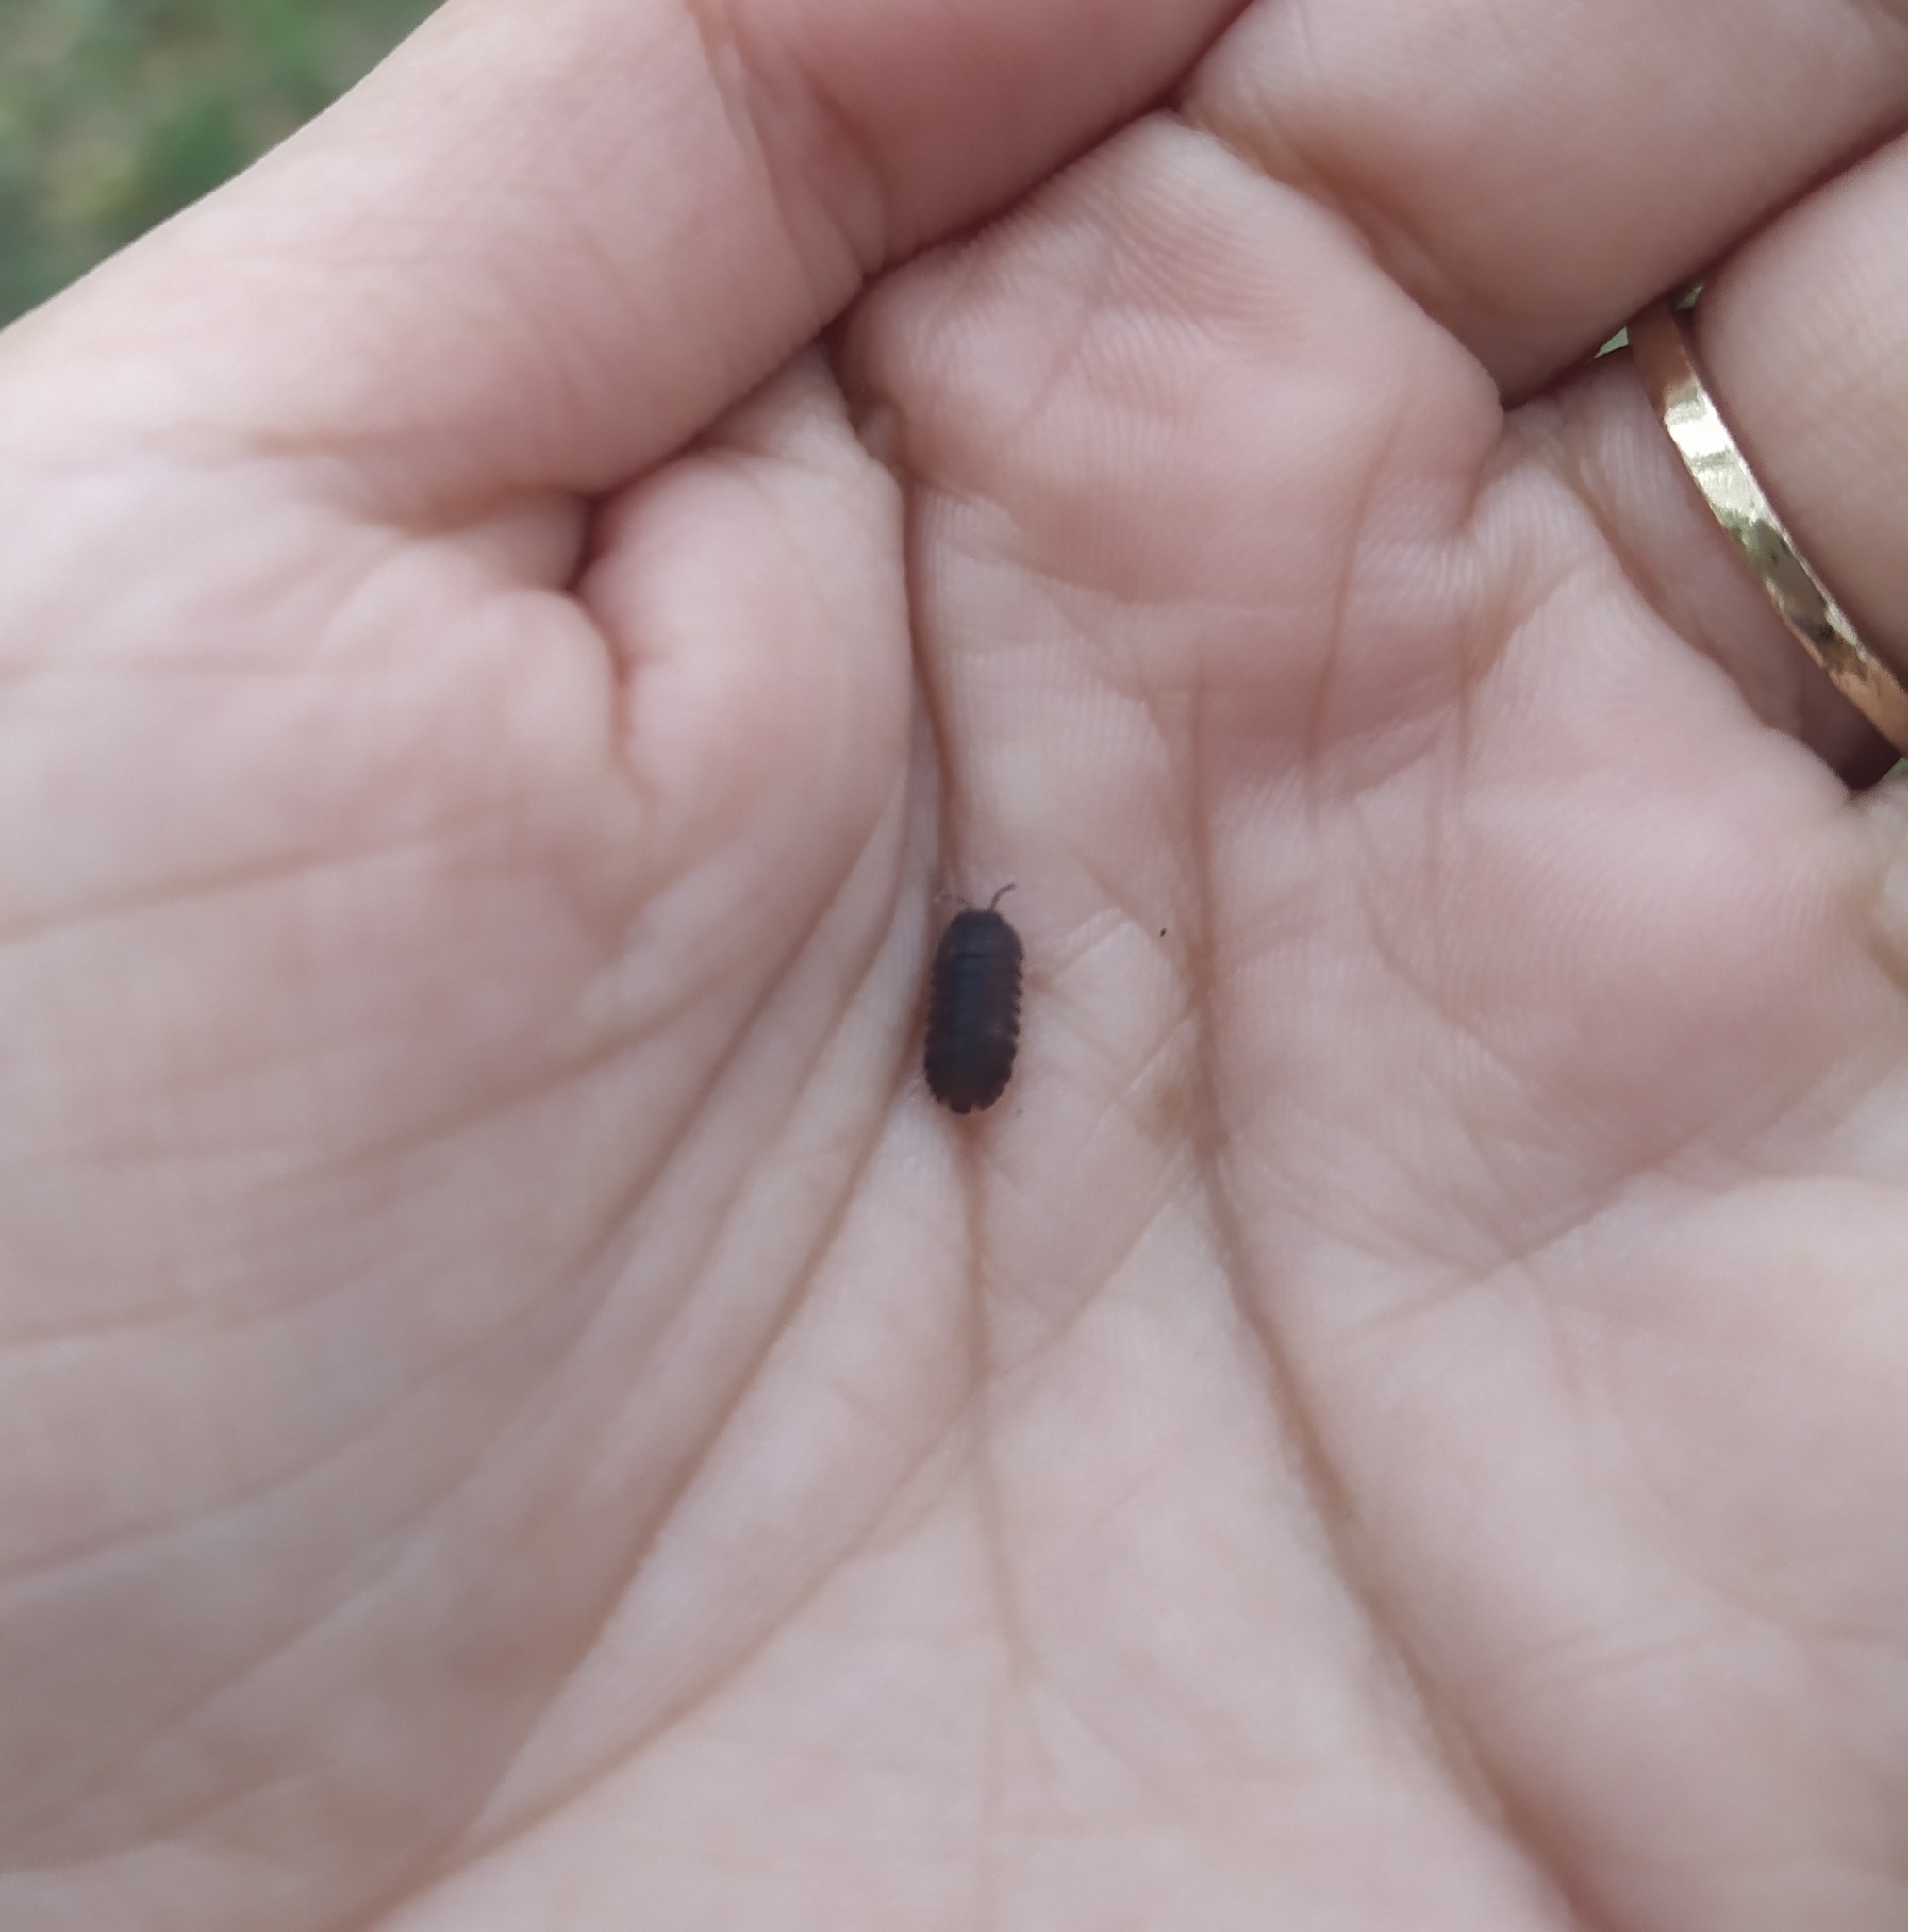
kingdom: Animalia
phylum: Arthropoda
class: Malacostraca
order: Isopoda
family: Armadillidae
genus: Cubaris
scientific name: Cubaris murina
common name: Pillbug
